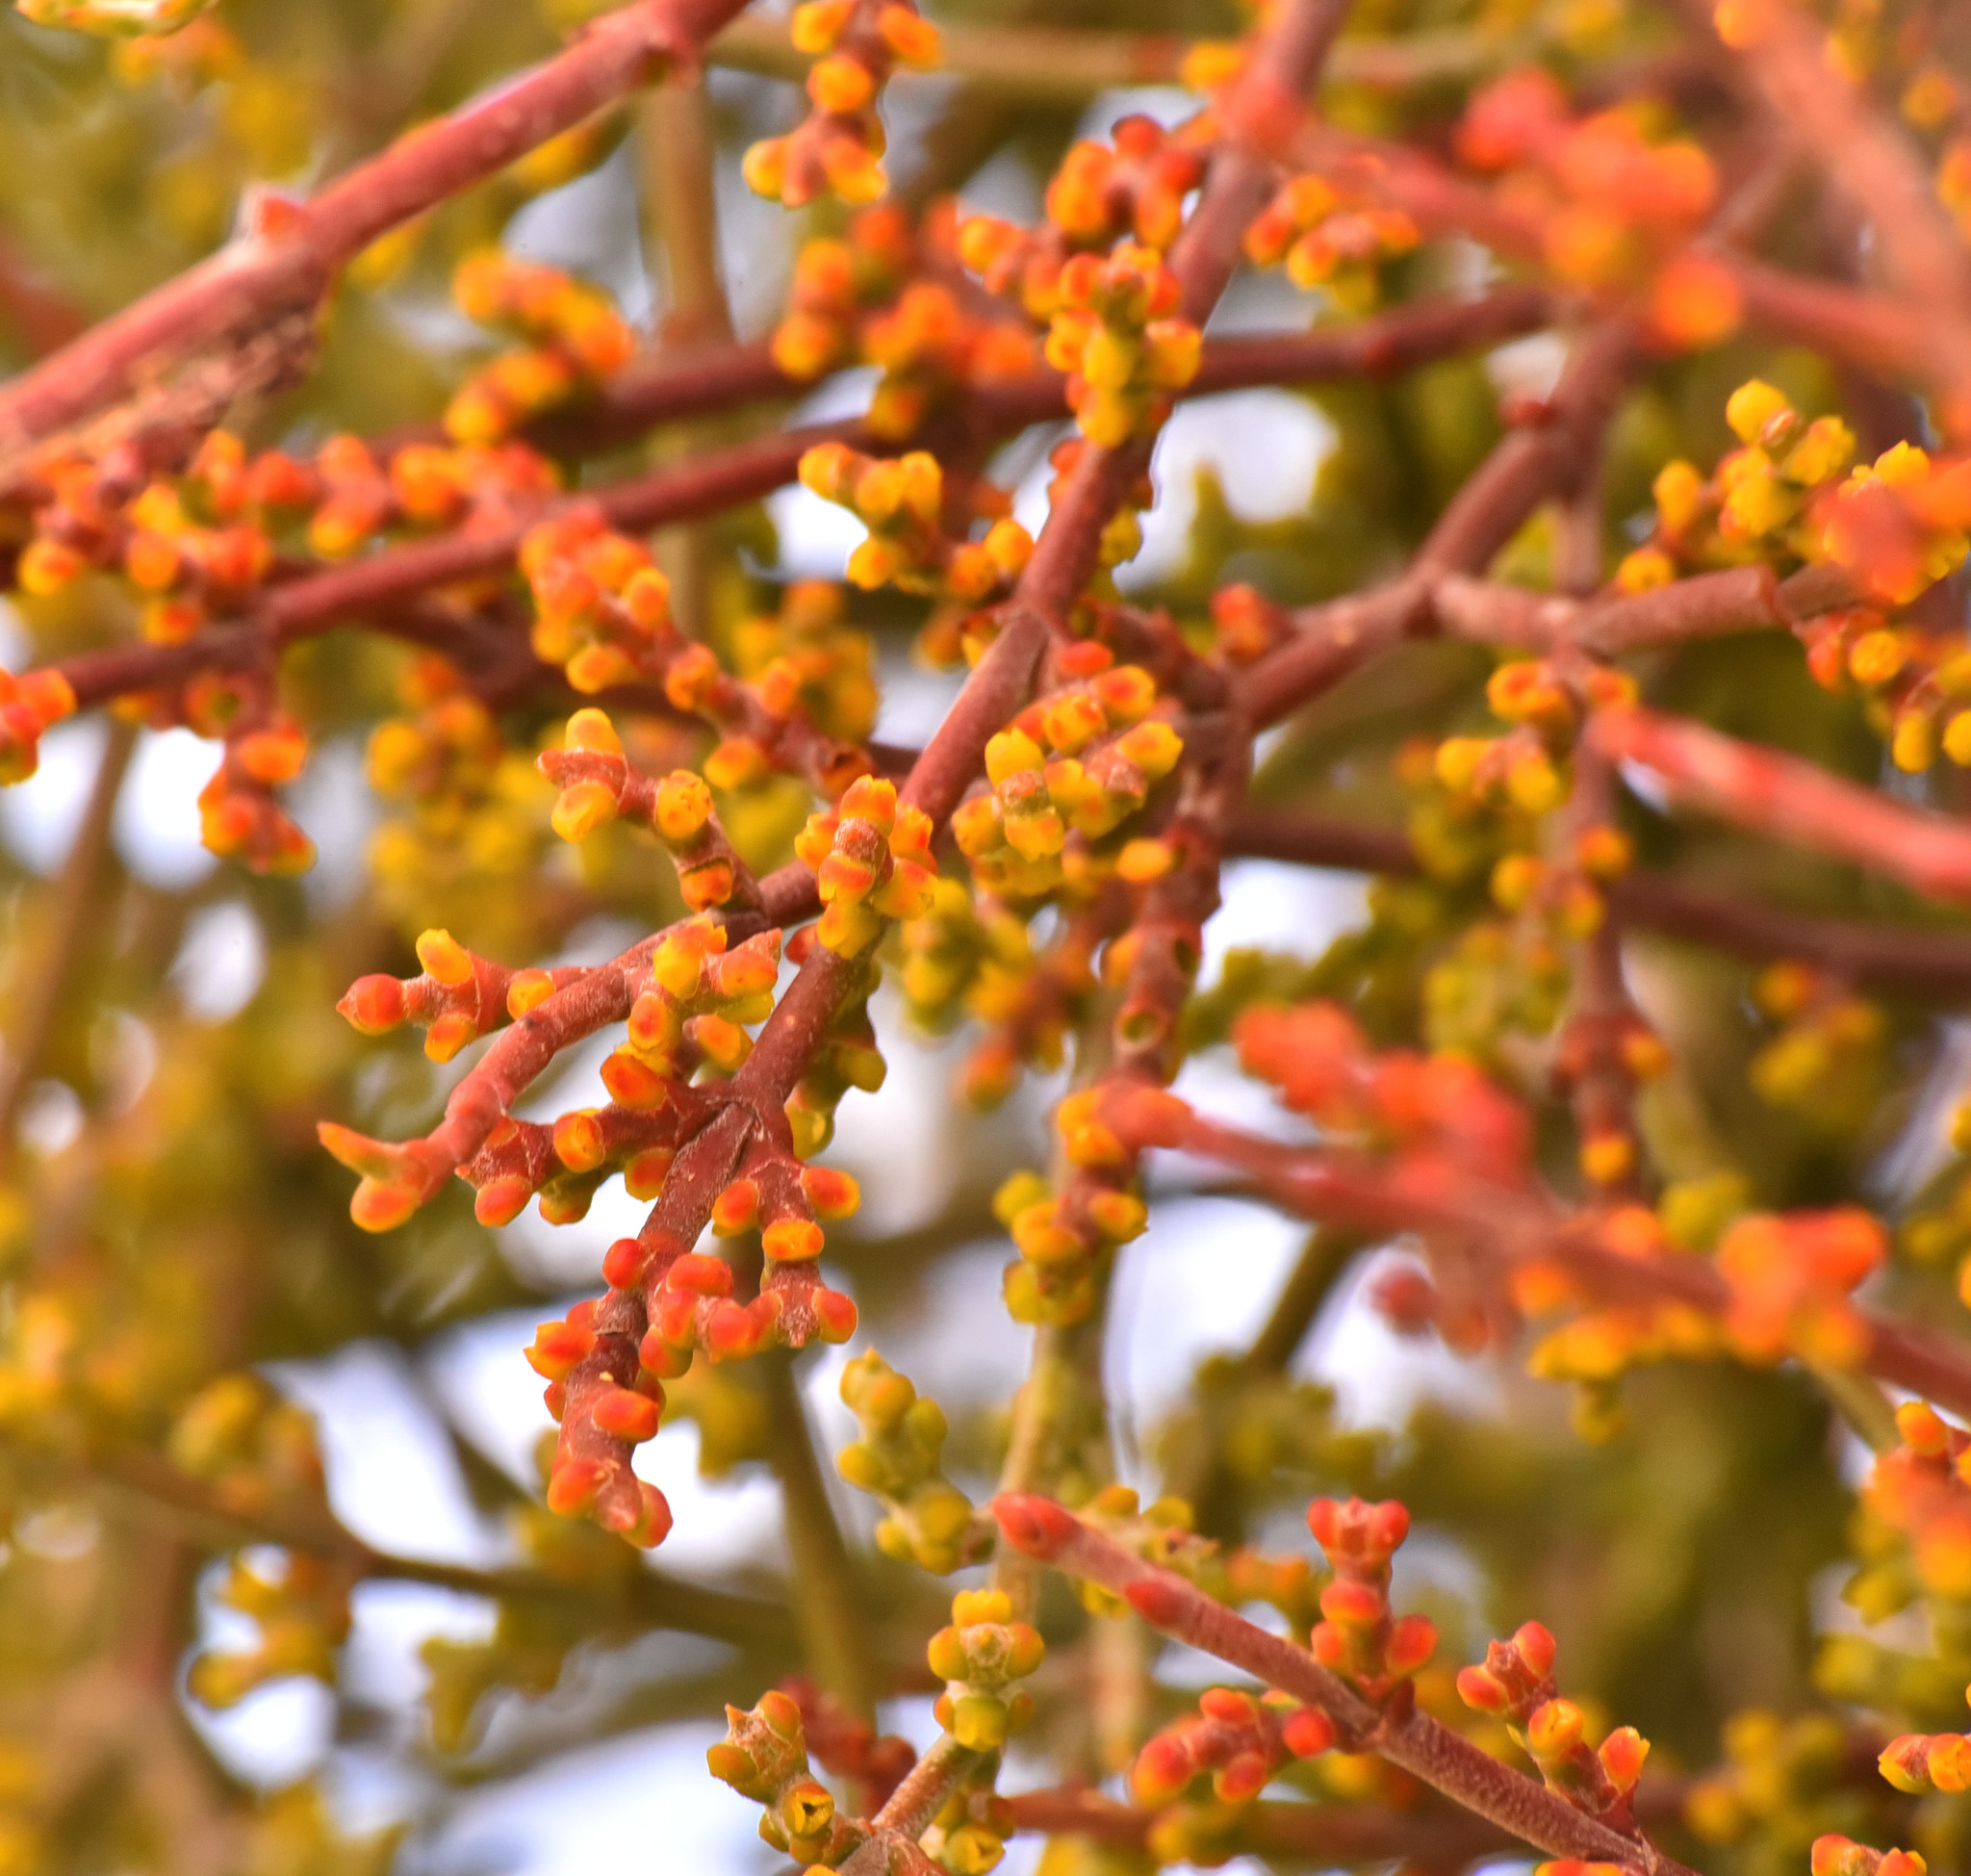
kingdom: Plantae
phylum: Tracheophyta
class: Magnoliopsida
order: Santalales
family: Viscaceae
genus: Phoradendron
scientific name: Phoradendron californicum
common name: Acacia mistletoe
